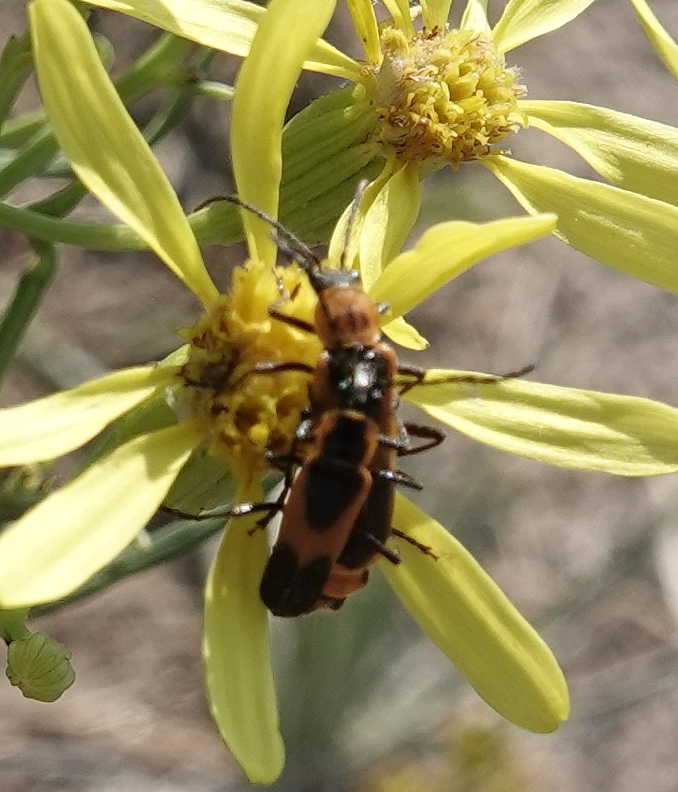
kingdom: Animalia
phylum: Arthropoda
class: Insecta
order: Coleoptera
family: Cantharidae
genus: Chauliognathus
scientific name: Chauliognathus basalis
